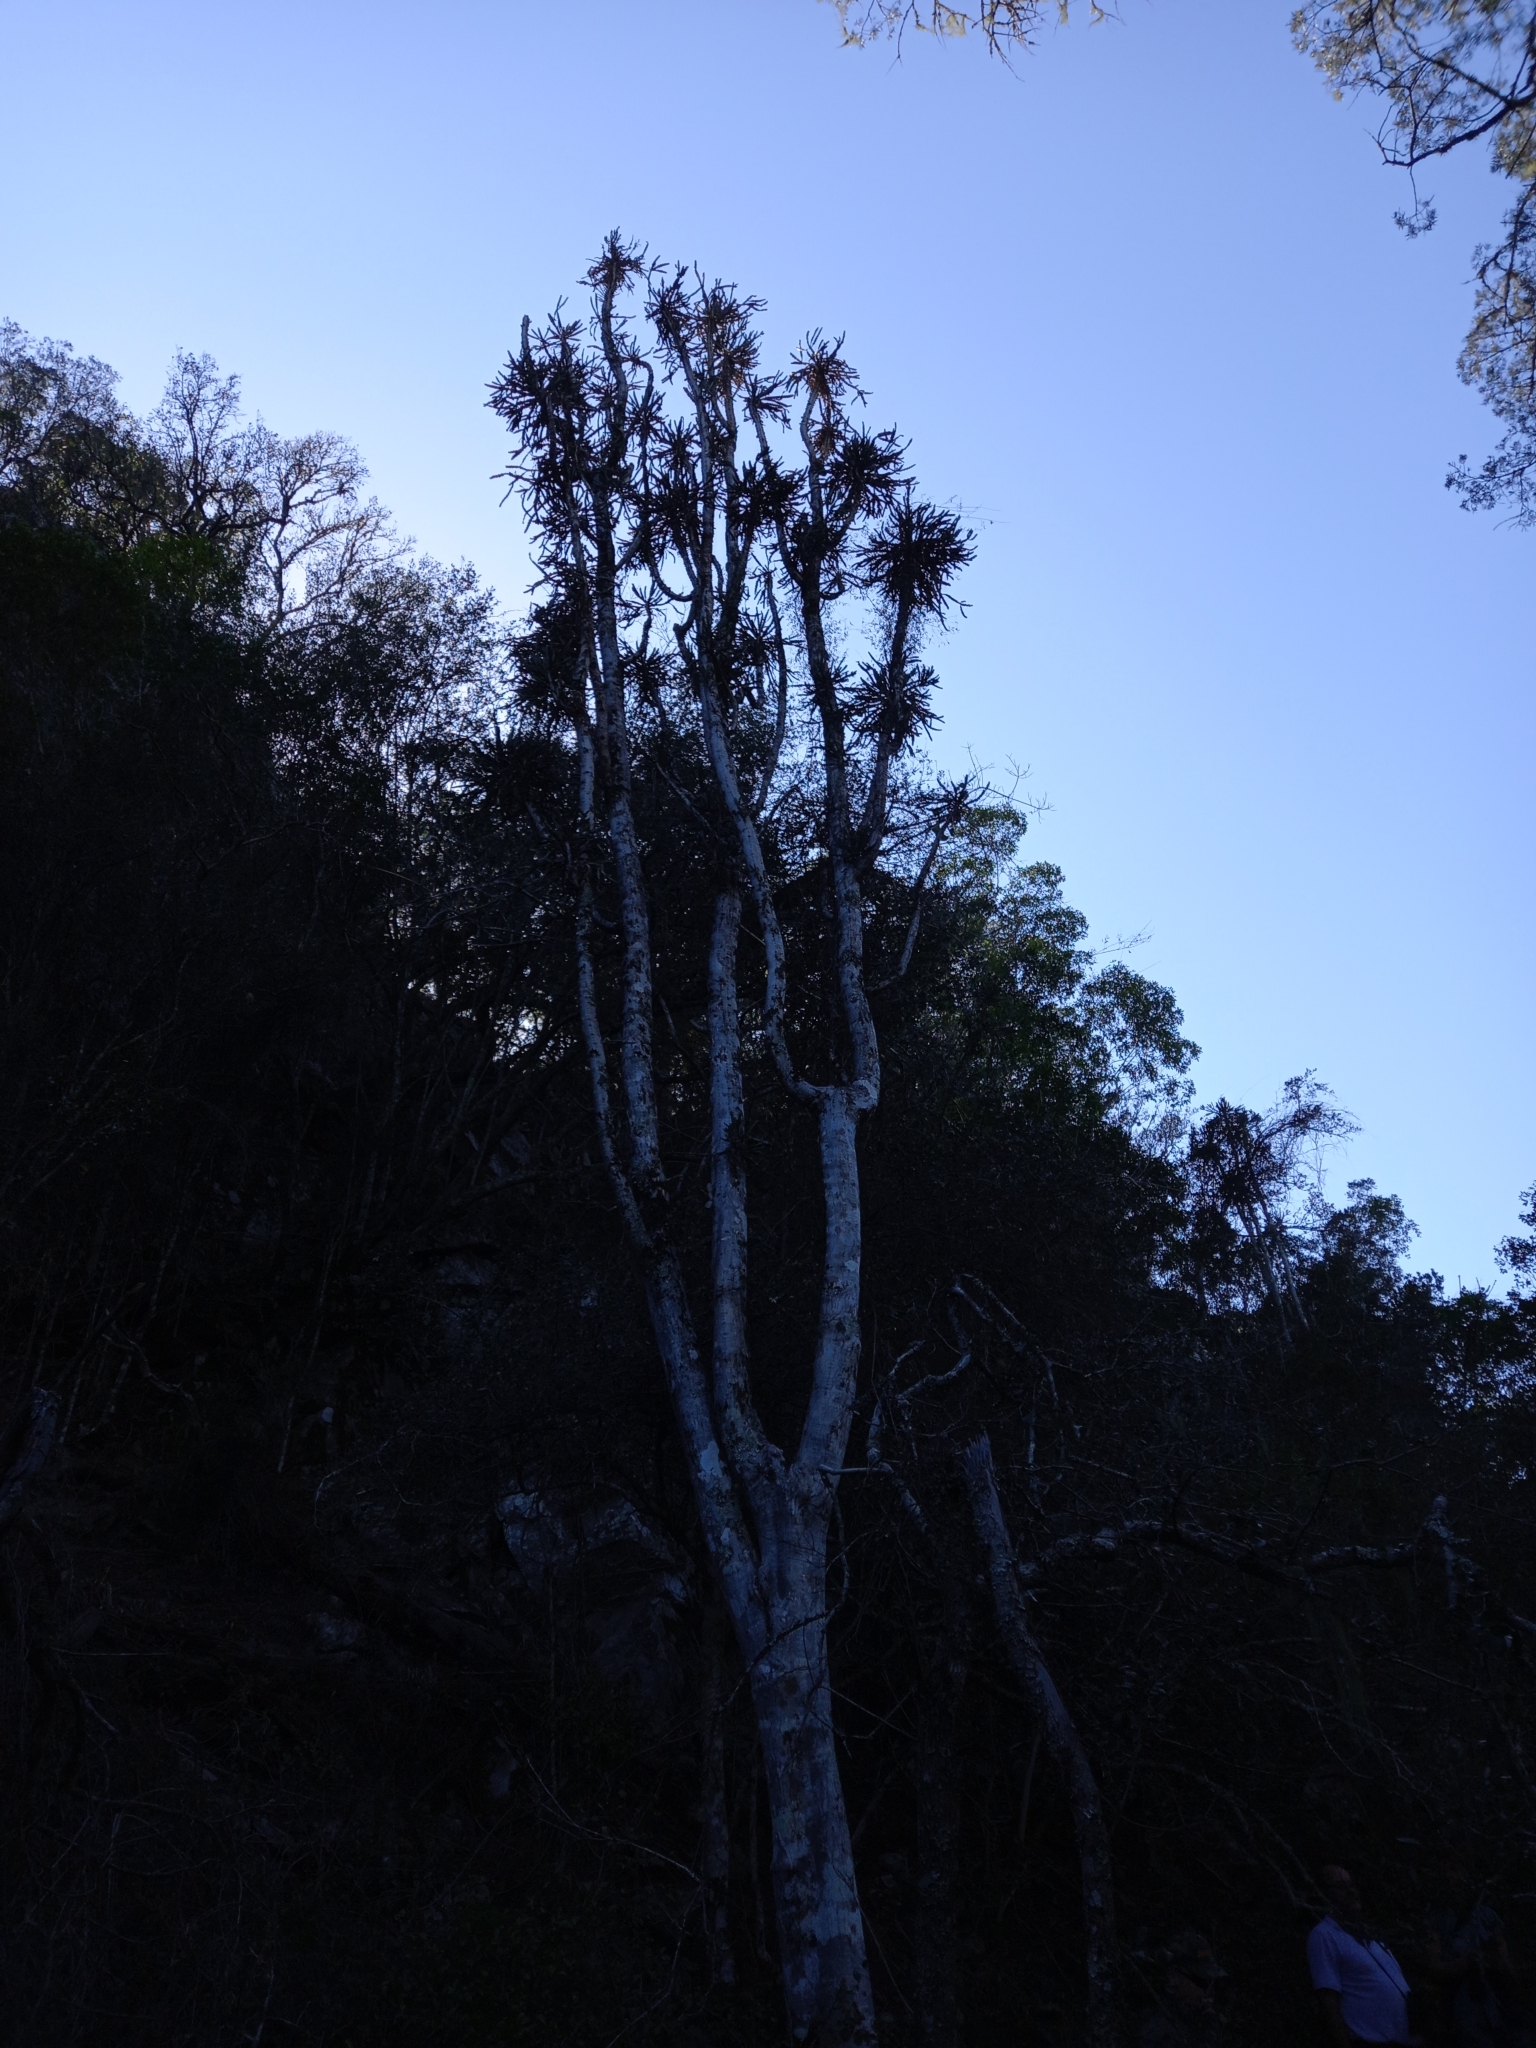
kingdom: Plantae
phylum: Tracheophyta
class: Magnoliopsida
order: Malpighiales
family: Euphorbiaceae
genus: Euphorbia
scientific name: Euphorbia grandidens
